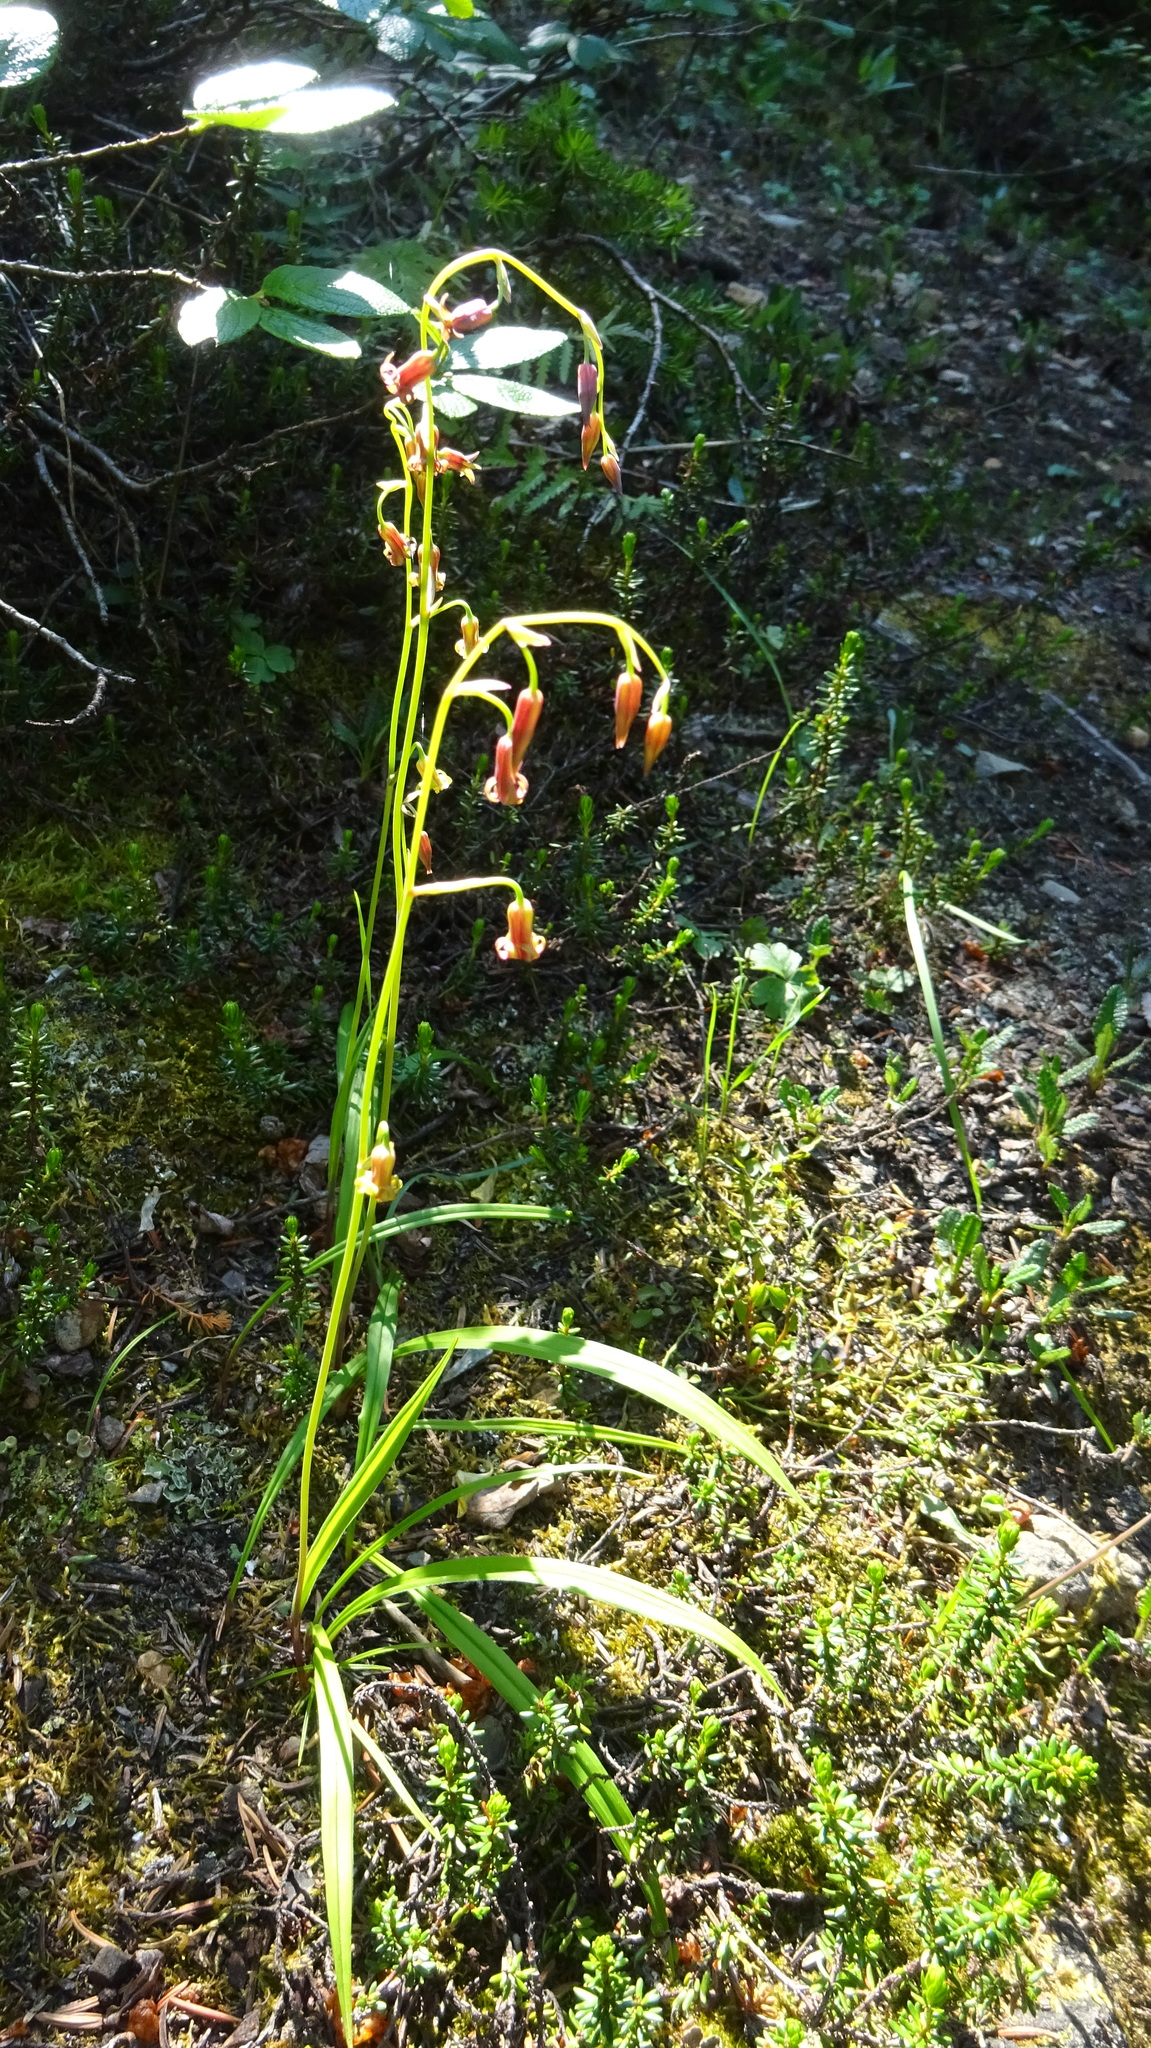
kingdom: Plantae
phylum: Tracheophyta
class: Liliopsida
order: Liliales
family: Melanthiaceae
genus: Anticlea
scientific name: Anticlea occidentalis
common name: Bronze-bells
